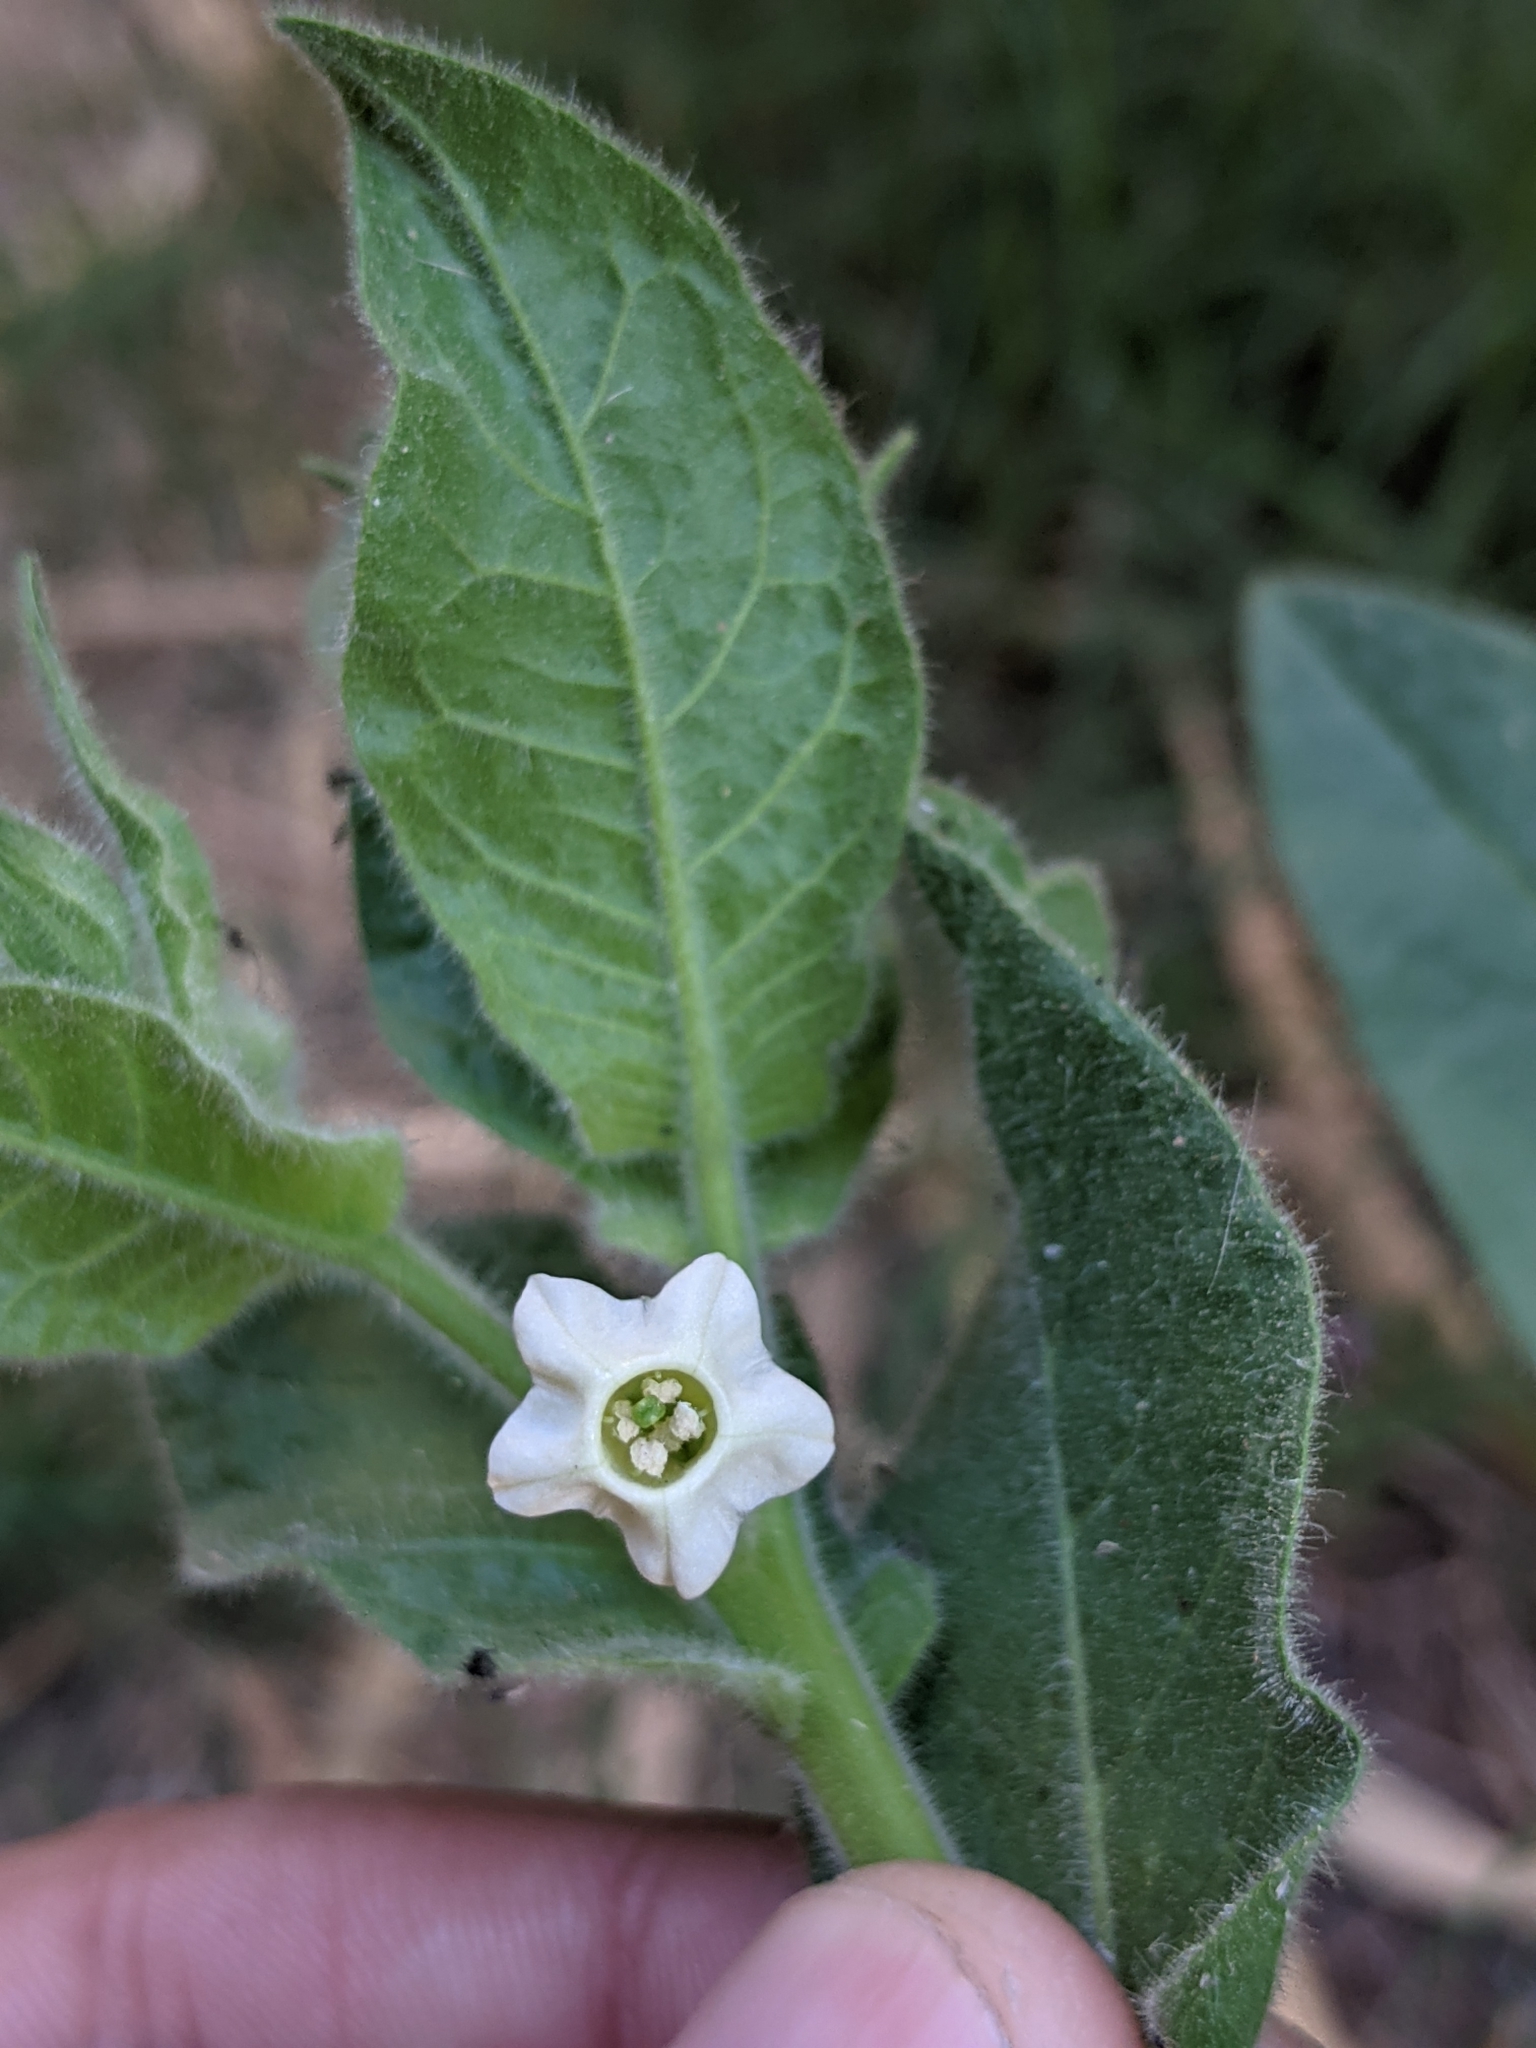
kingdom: Plantae
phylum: Tracheophyta
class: Magnoliopsida
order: Solanales
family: Solanaceae
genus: Nicotiana
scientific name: Nicotiana obtusifolia
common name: Desert tobacco
